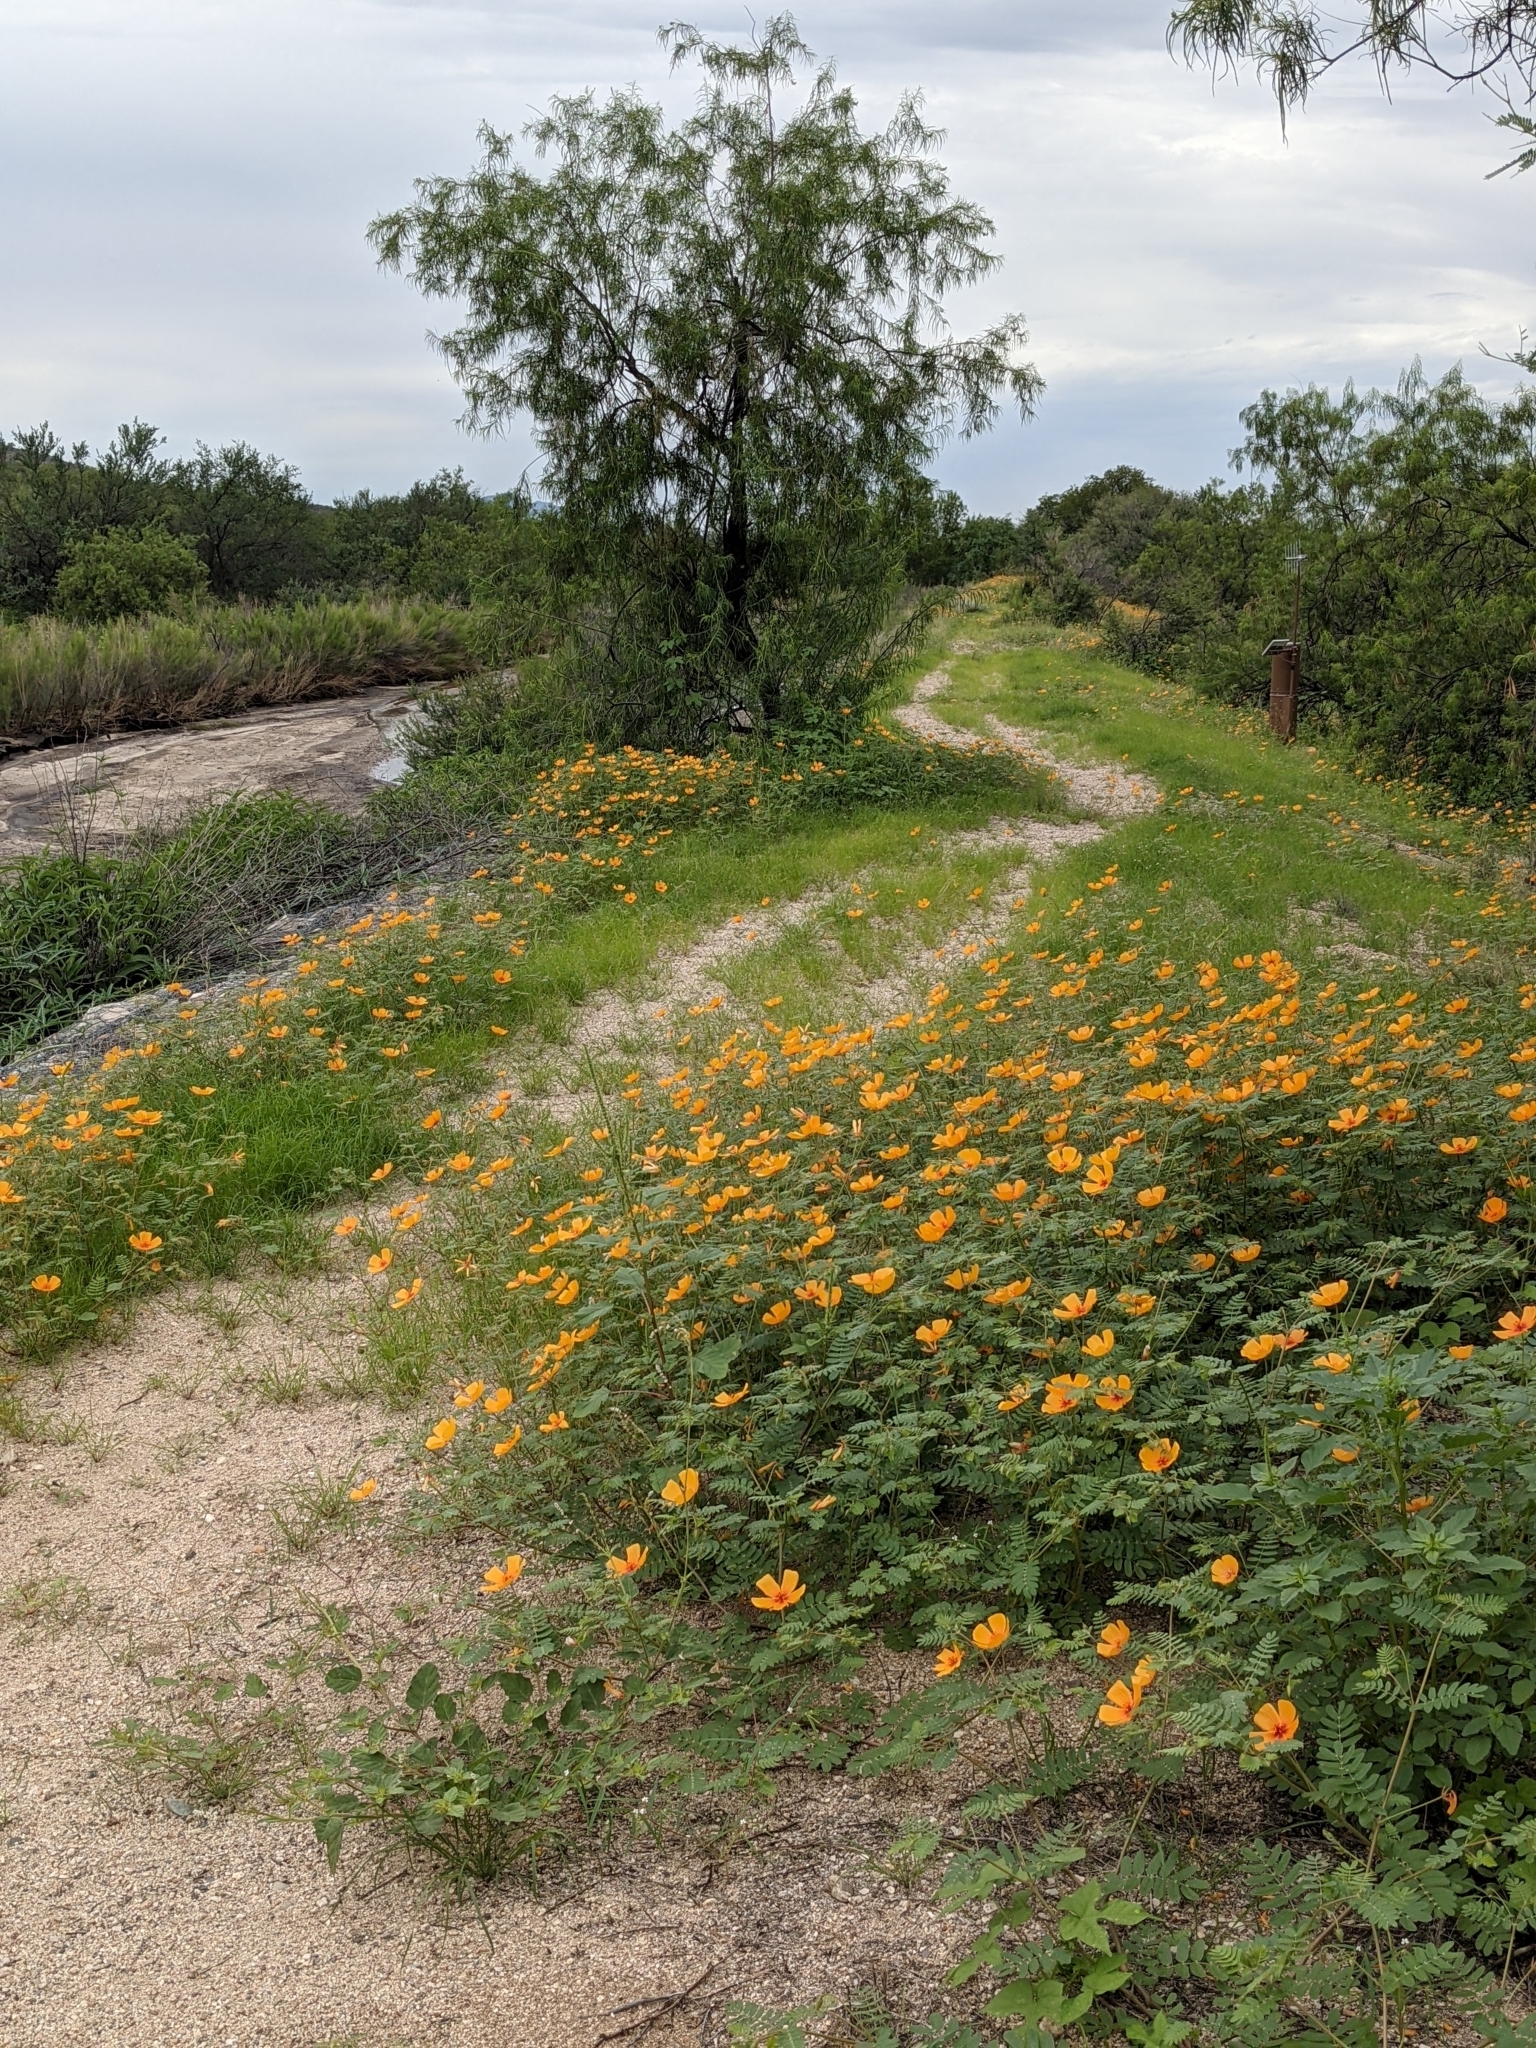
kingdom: Plantae
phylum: Tracheophyta
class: Magnoliopsida
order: Zygophyllales
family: Zygophyllaceae
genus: Kallstroemia
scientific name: Kallstroemia grandiflora
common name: Arizona-poppy
